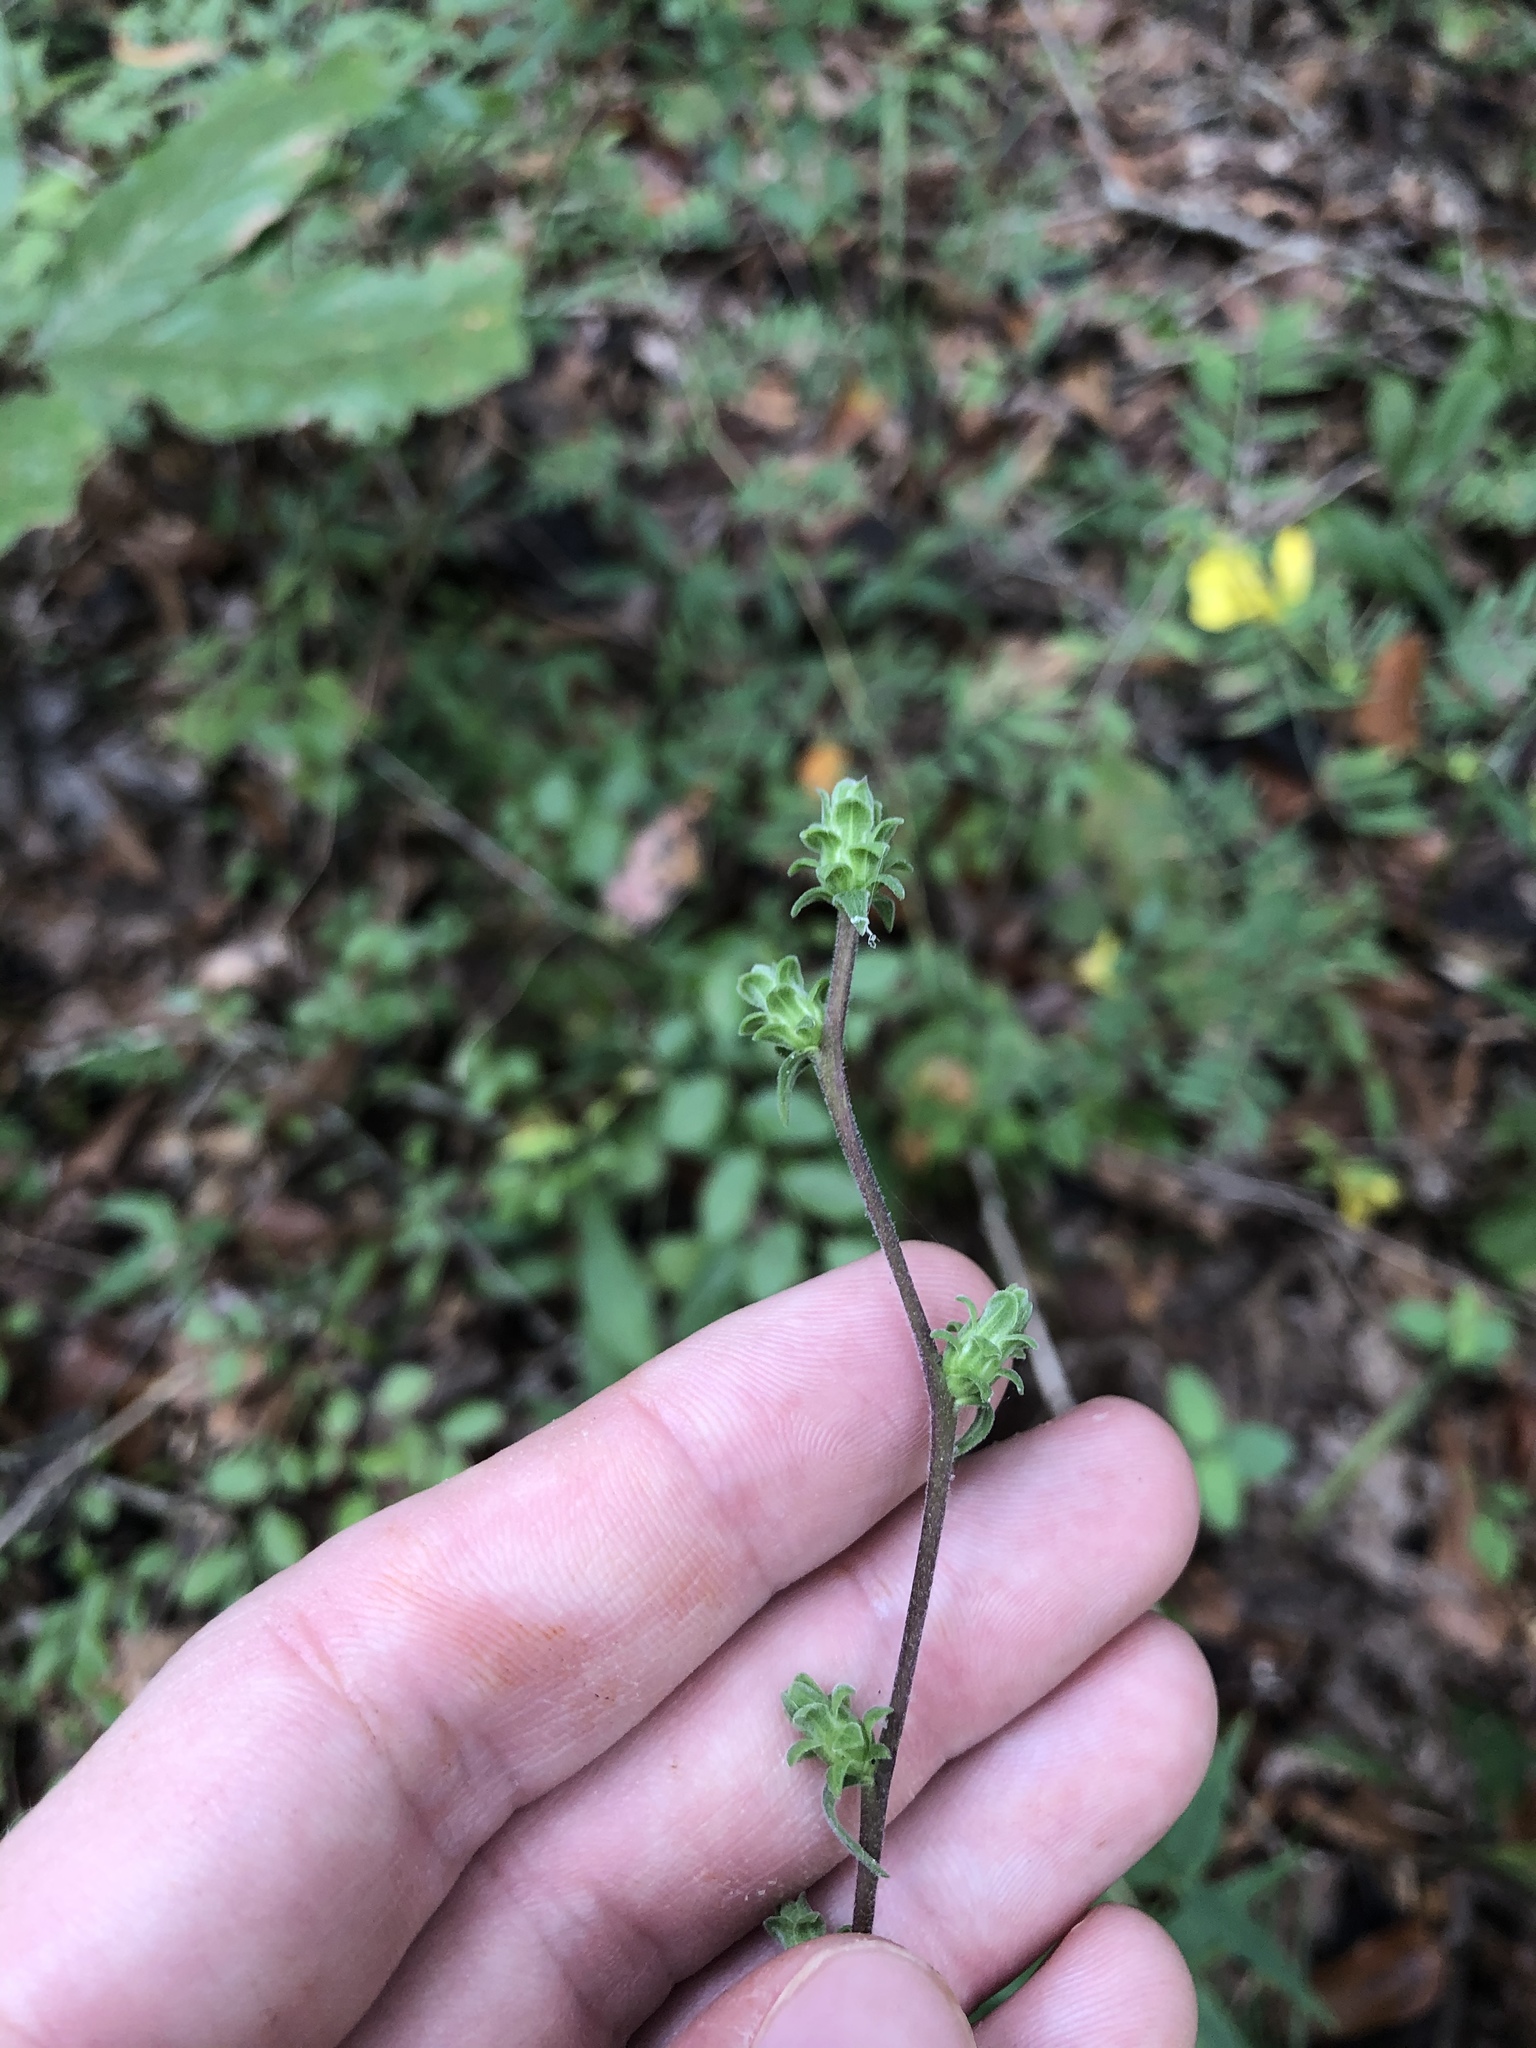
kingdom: Plantae
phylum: Tracheophyta
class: Magnoliopsida
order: Asterales
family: Asteraceae
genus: Liatris
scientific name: Liatris squarrulosa
